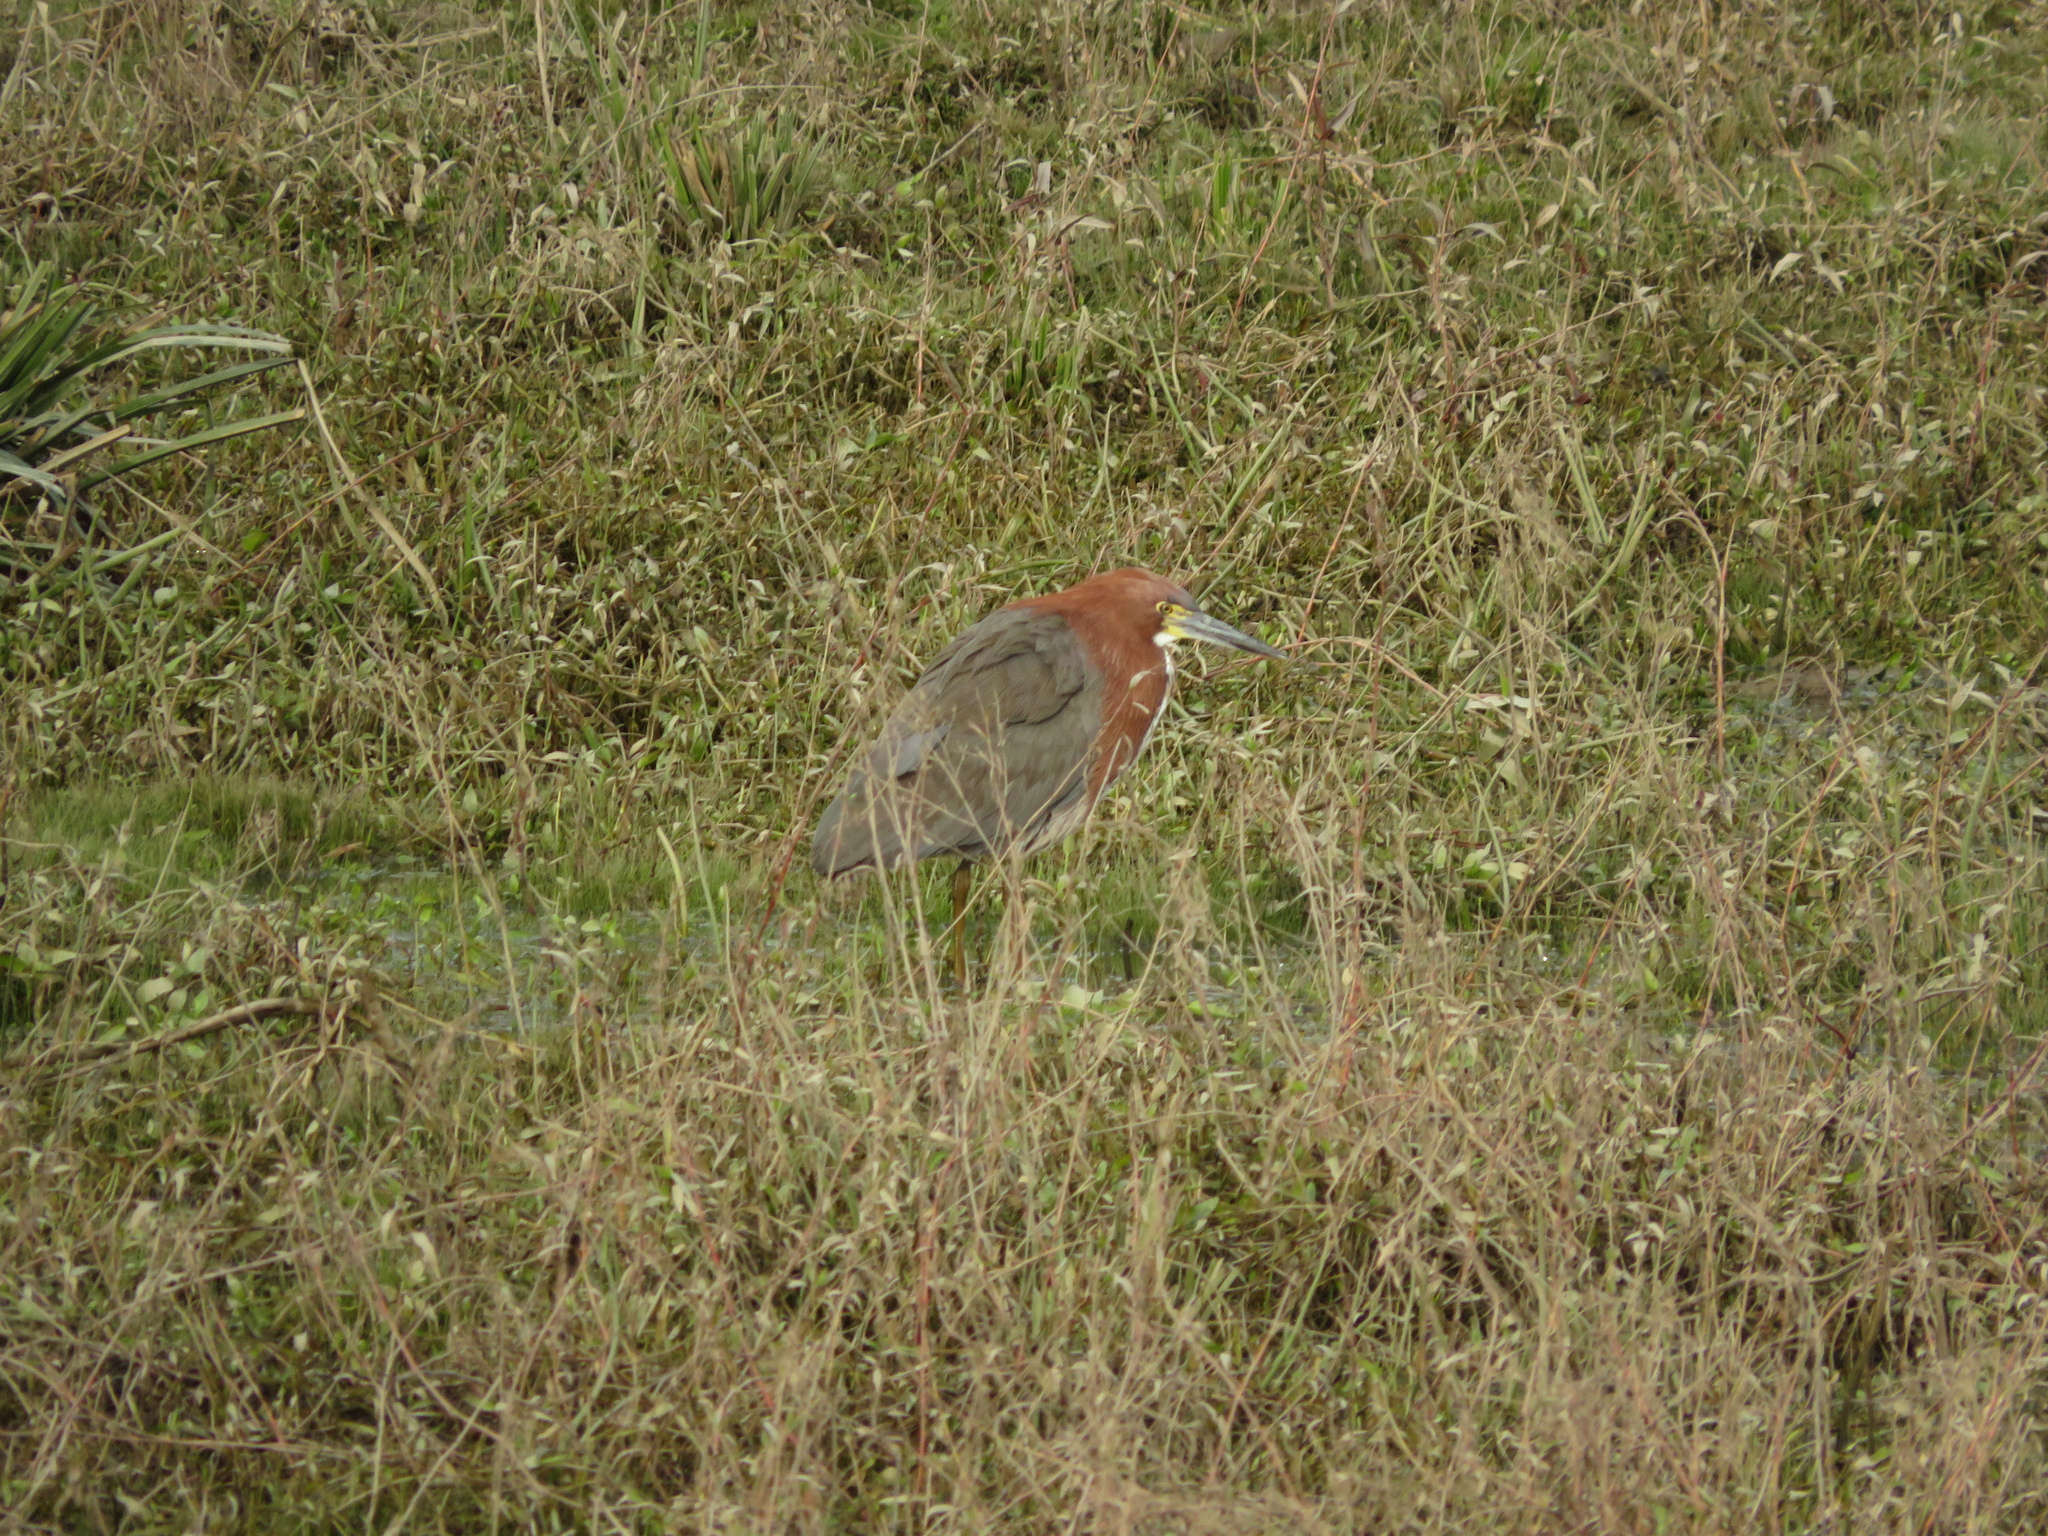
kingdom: Animalia
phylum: Chordata
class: Aves
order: Pelecaniformes
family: Ardeidae
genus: Tigrisoma
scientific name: Tigrisoma lineatum
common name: Rufescent tiger-heron
